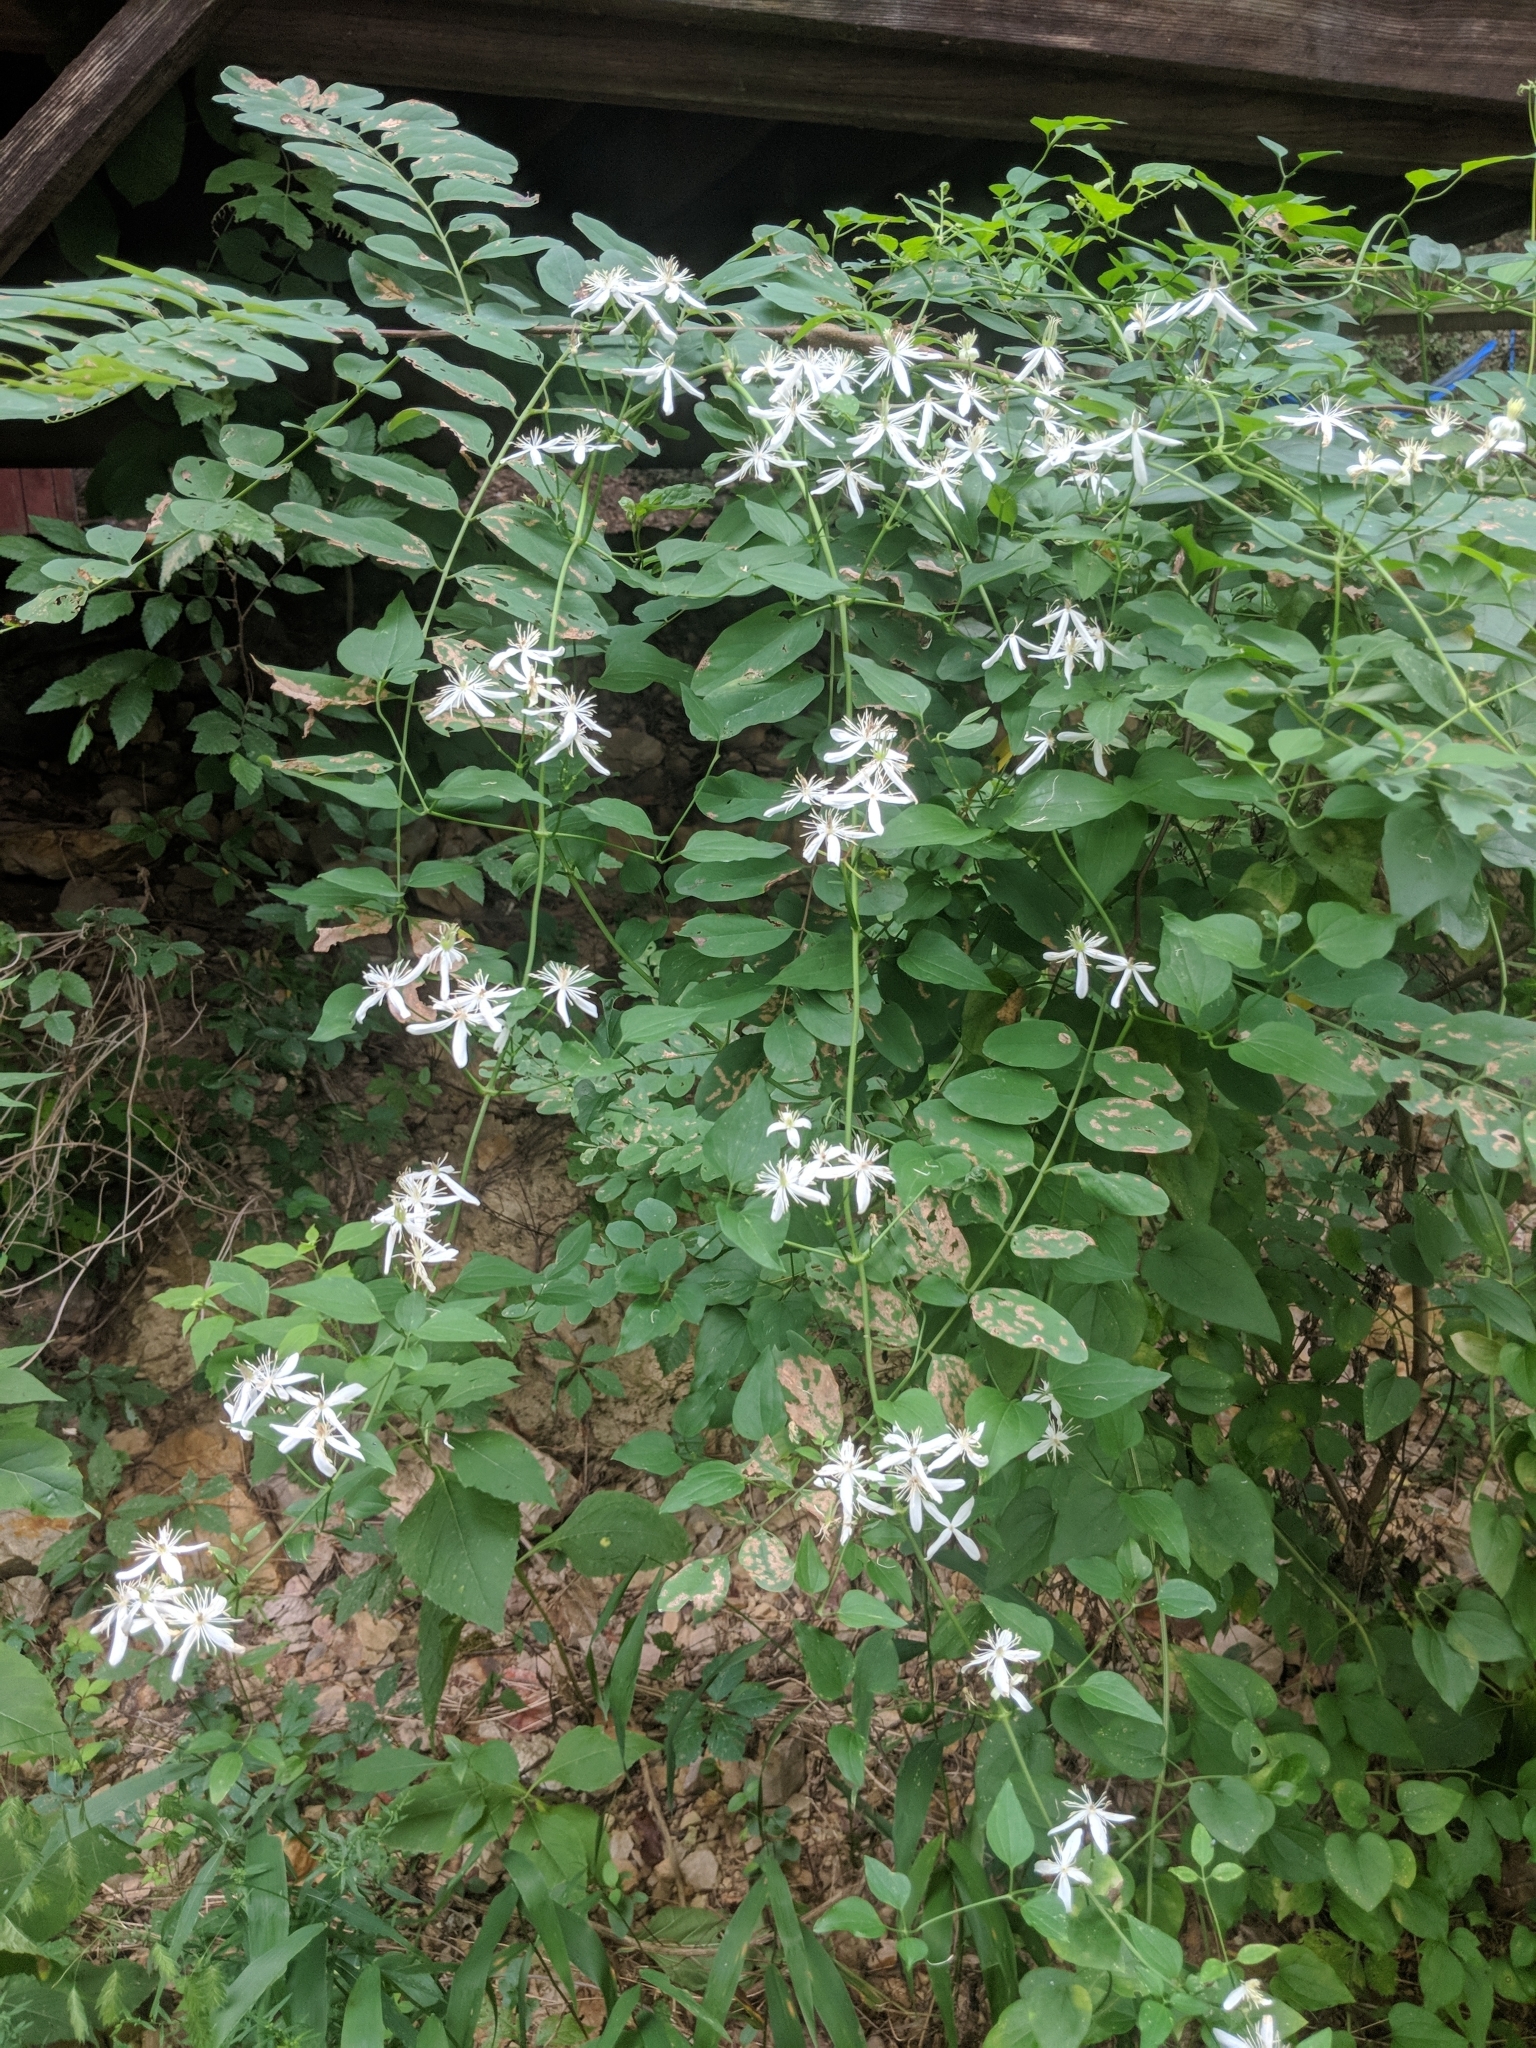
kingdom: Plantae
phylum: Tracheophyta
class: Magnoliopsida
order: Ranunculales
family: Ranunculaceae
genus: Clematis
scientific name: Clematis terniflora
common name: Sweet autumn clematis
